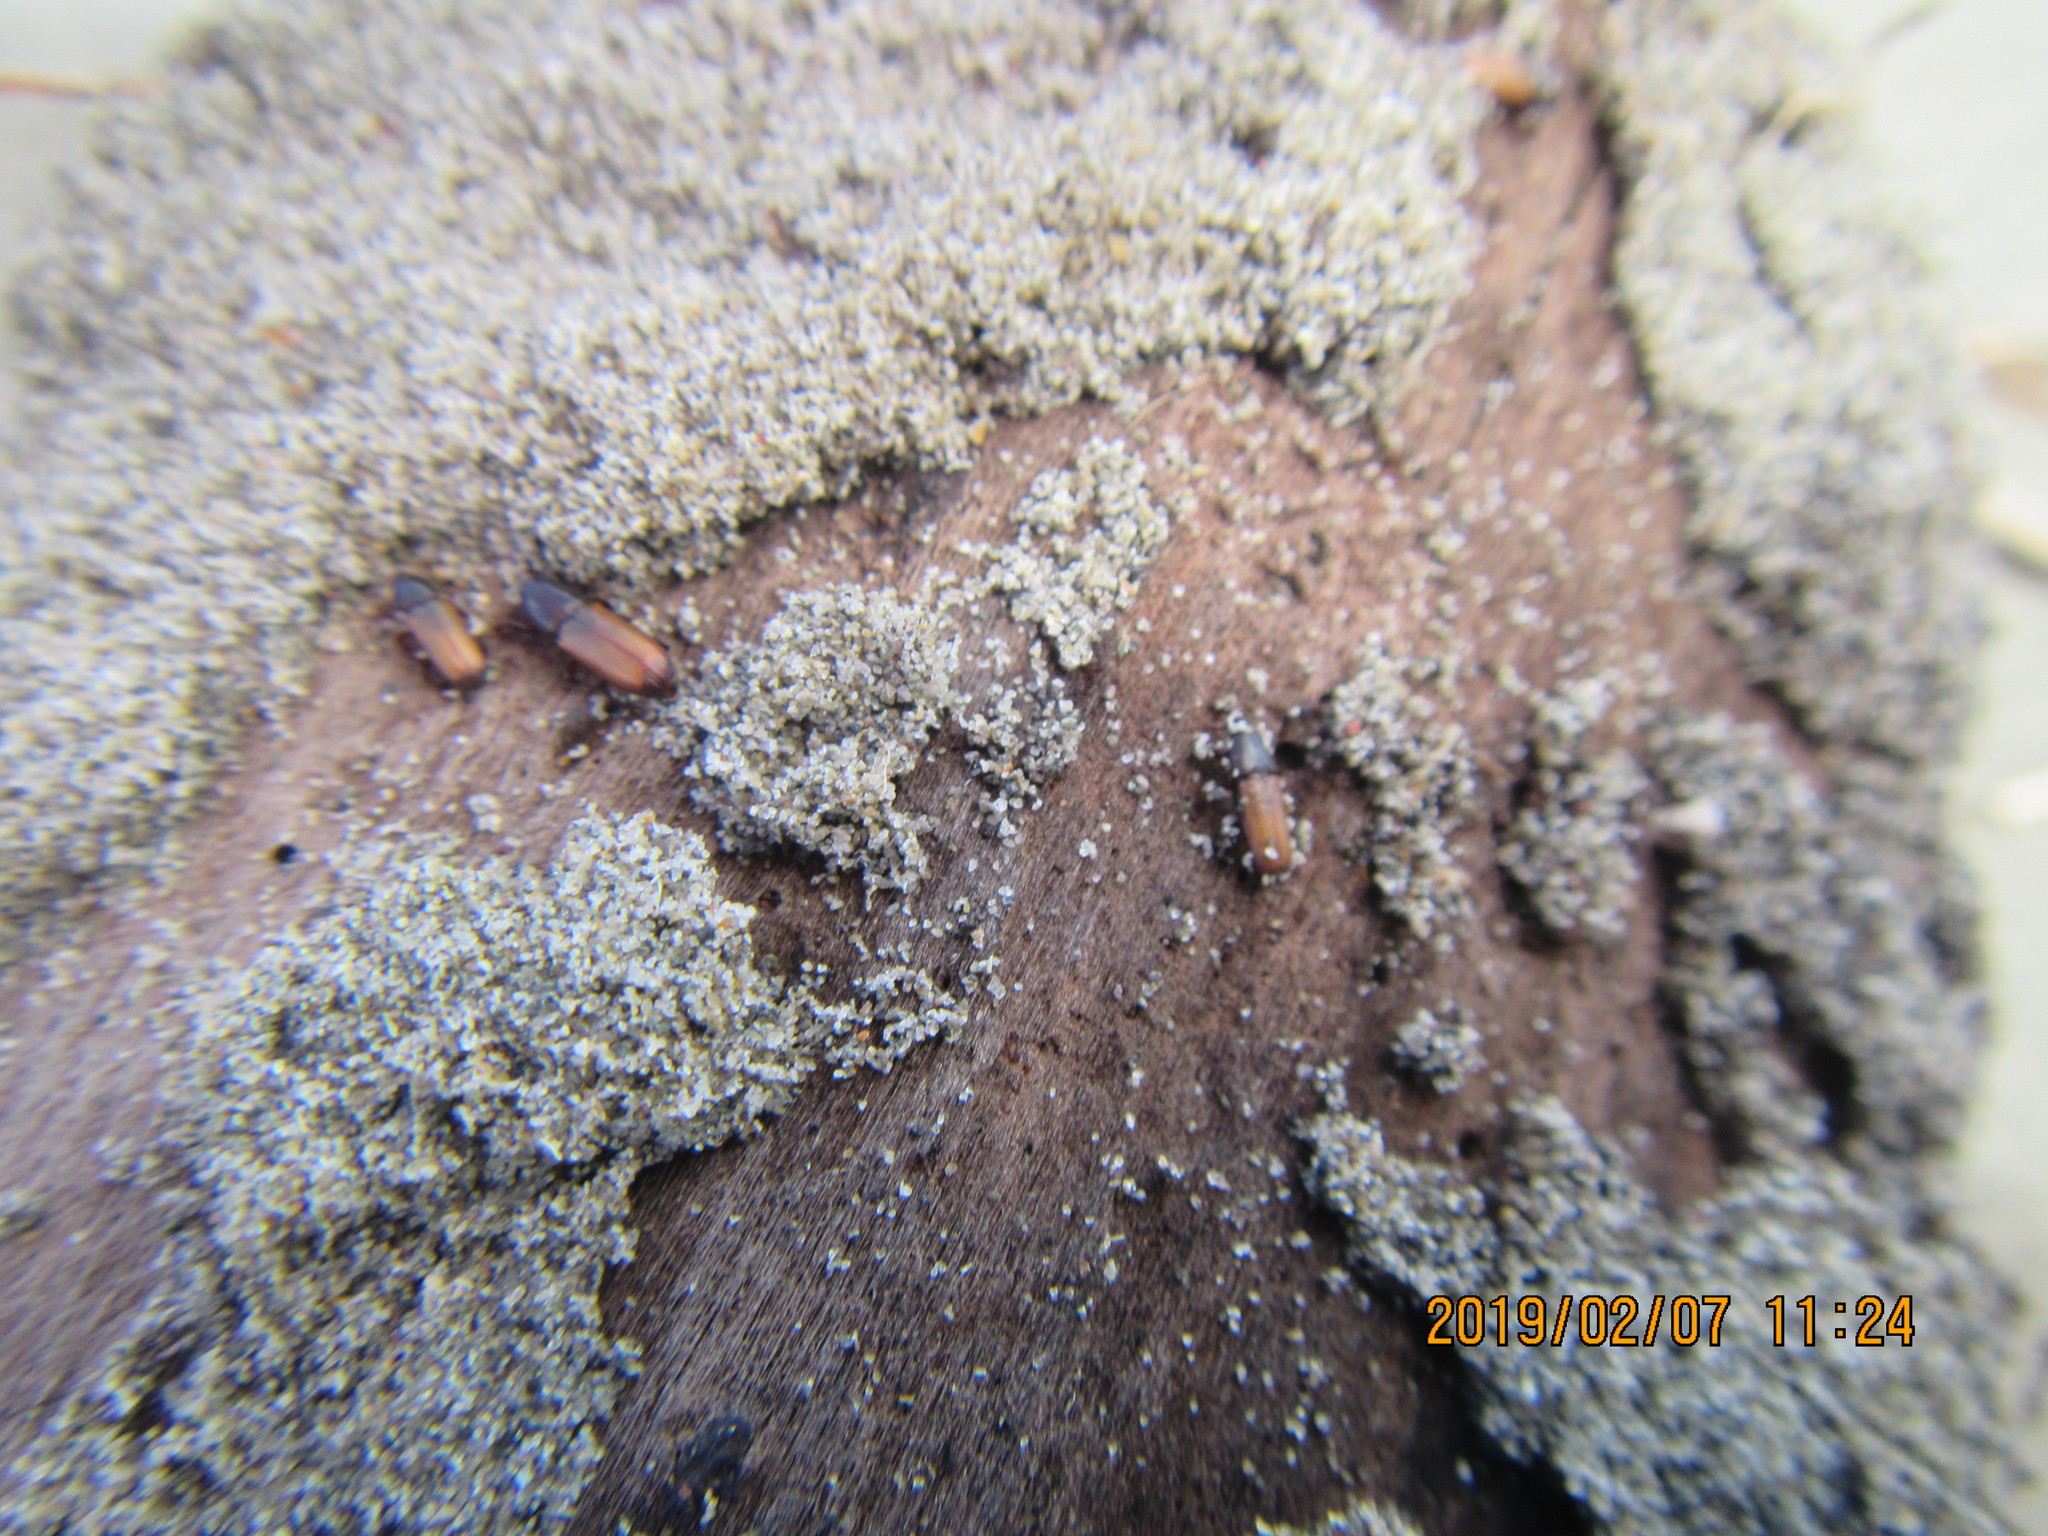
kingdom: Animalia
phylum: Arthropoda
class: Insecta
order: Coleoptera
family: Curculionidae
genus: Mesites
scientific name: Mesites pallidipennis
